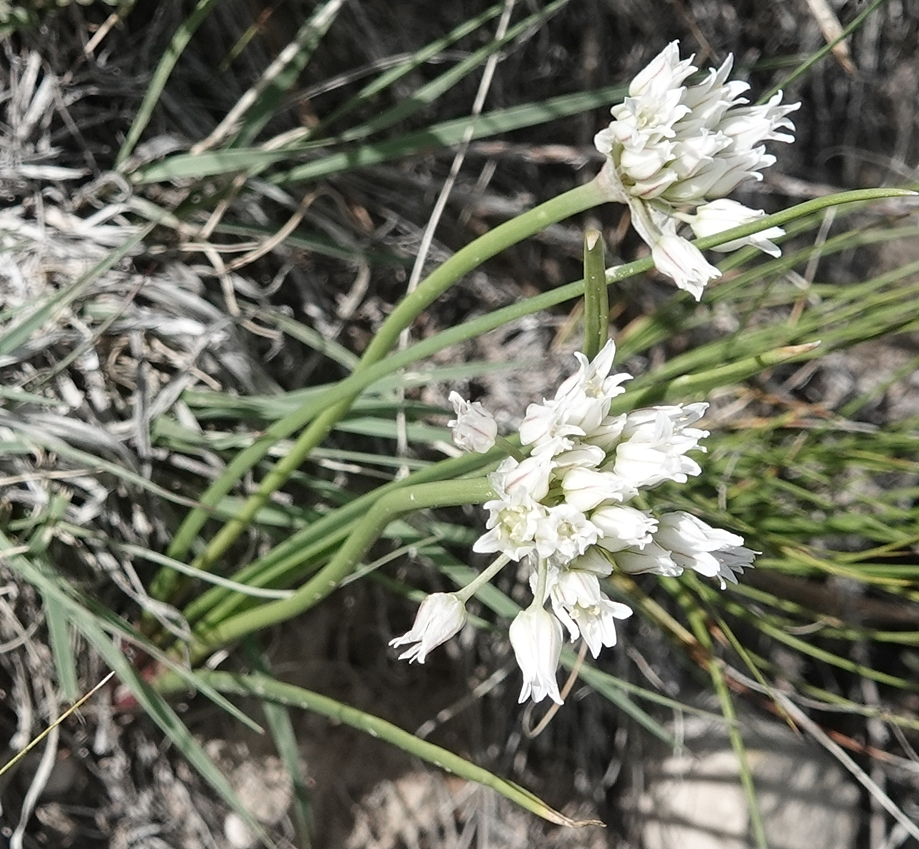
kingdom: Plantae
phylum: Tracheophyta
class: Liliopsida
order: Asparagales
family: Amaryllidaceae
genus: Allium
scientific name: Allium textile
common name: Prairie onion
